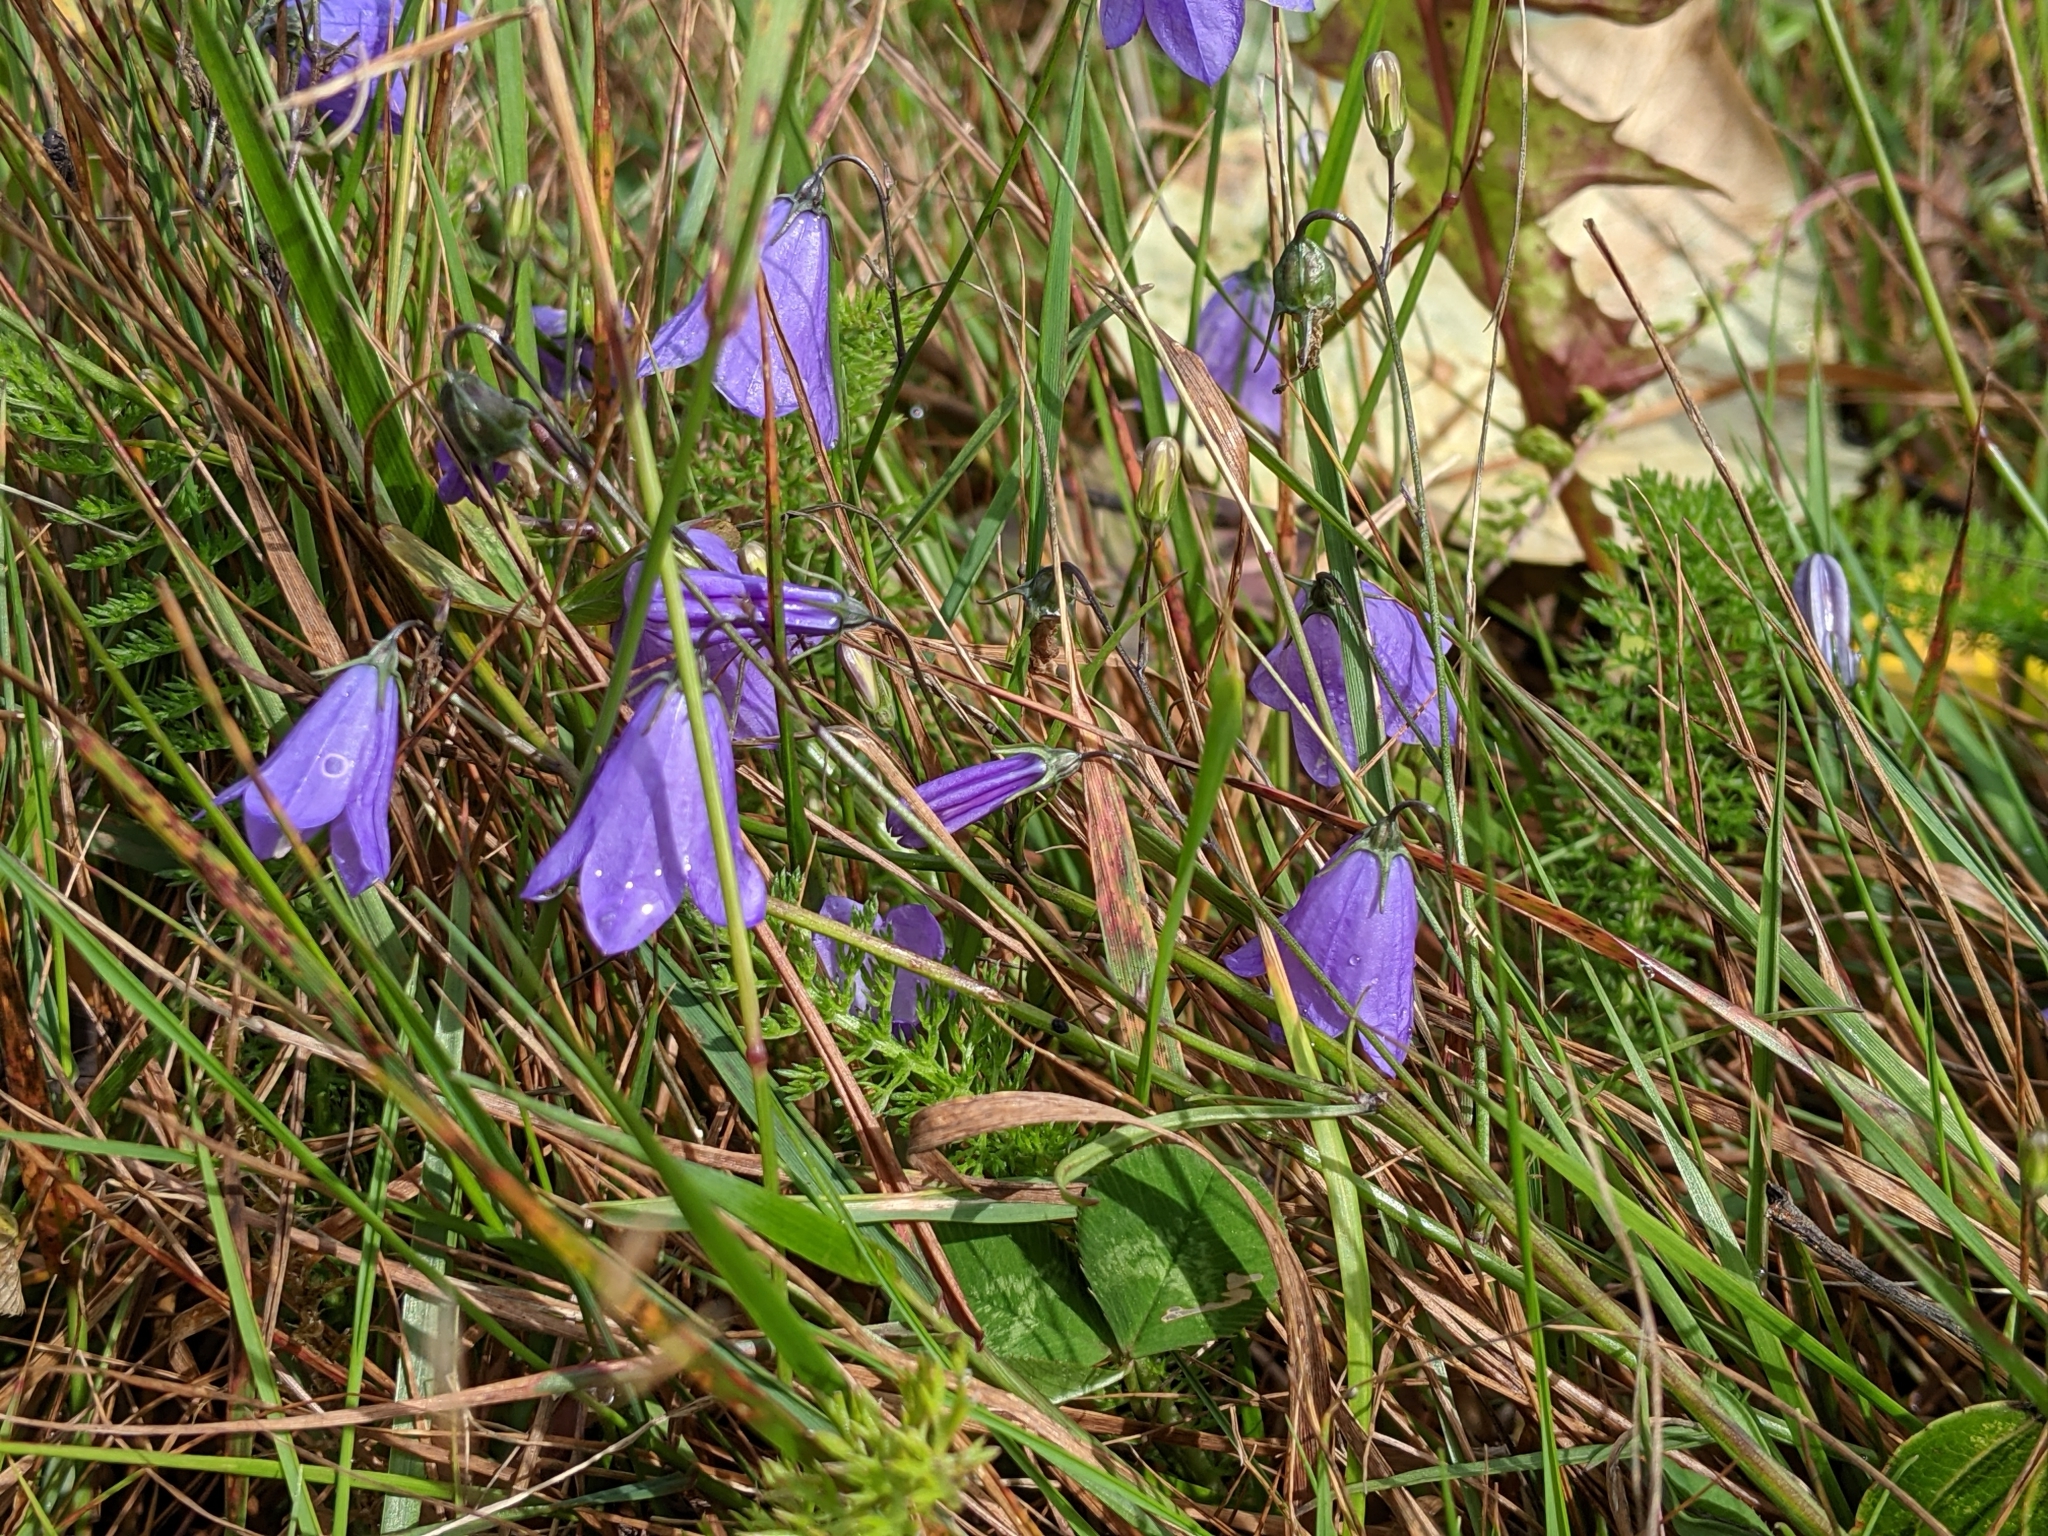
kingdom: Plantae
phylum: Tracheophyta
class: Magnoliopsida
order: Asterales
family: Campanulaceae
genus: Campanula
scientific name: Campanula alaskana
